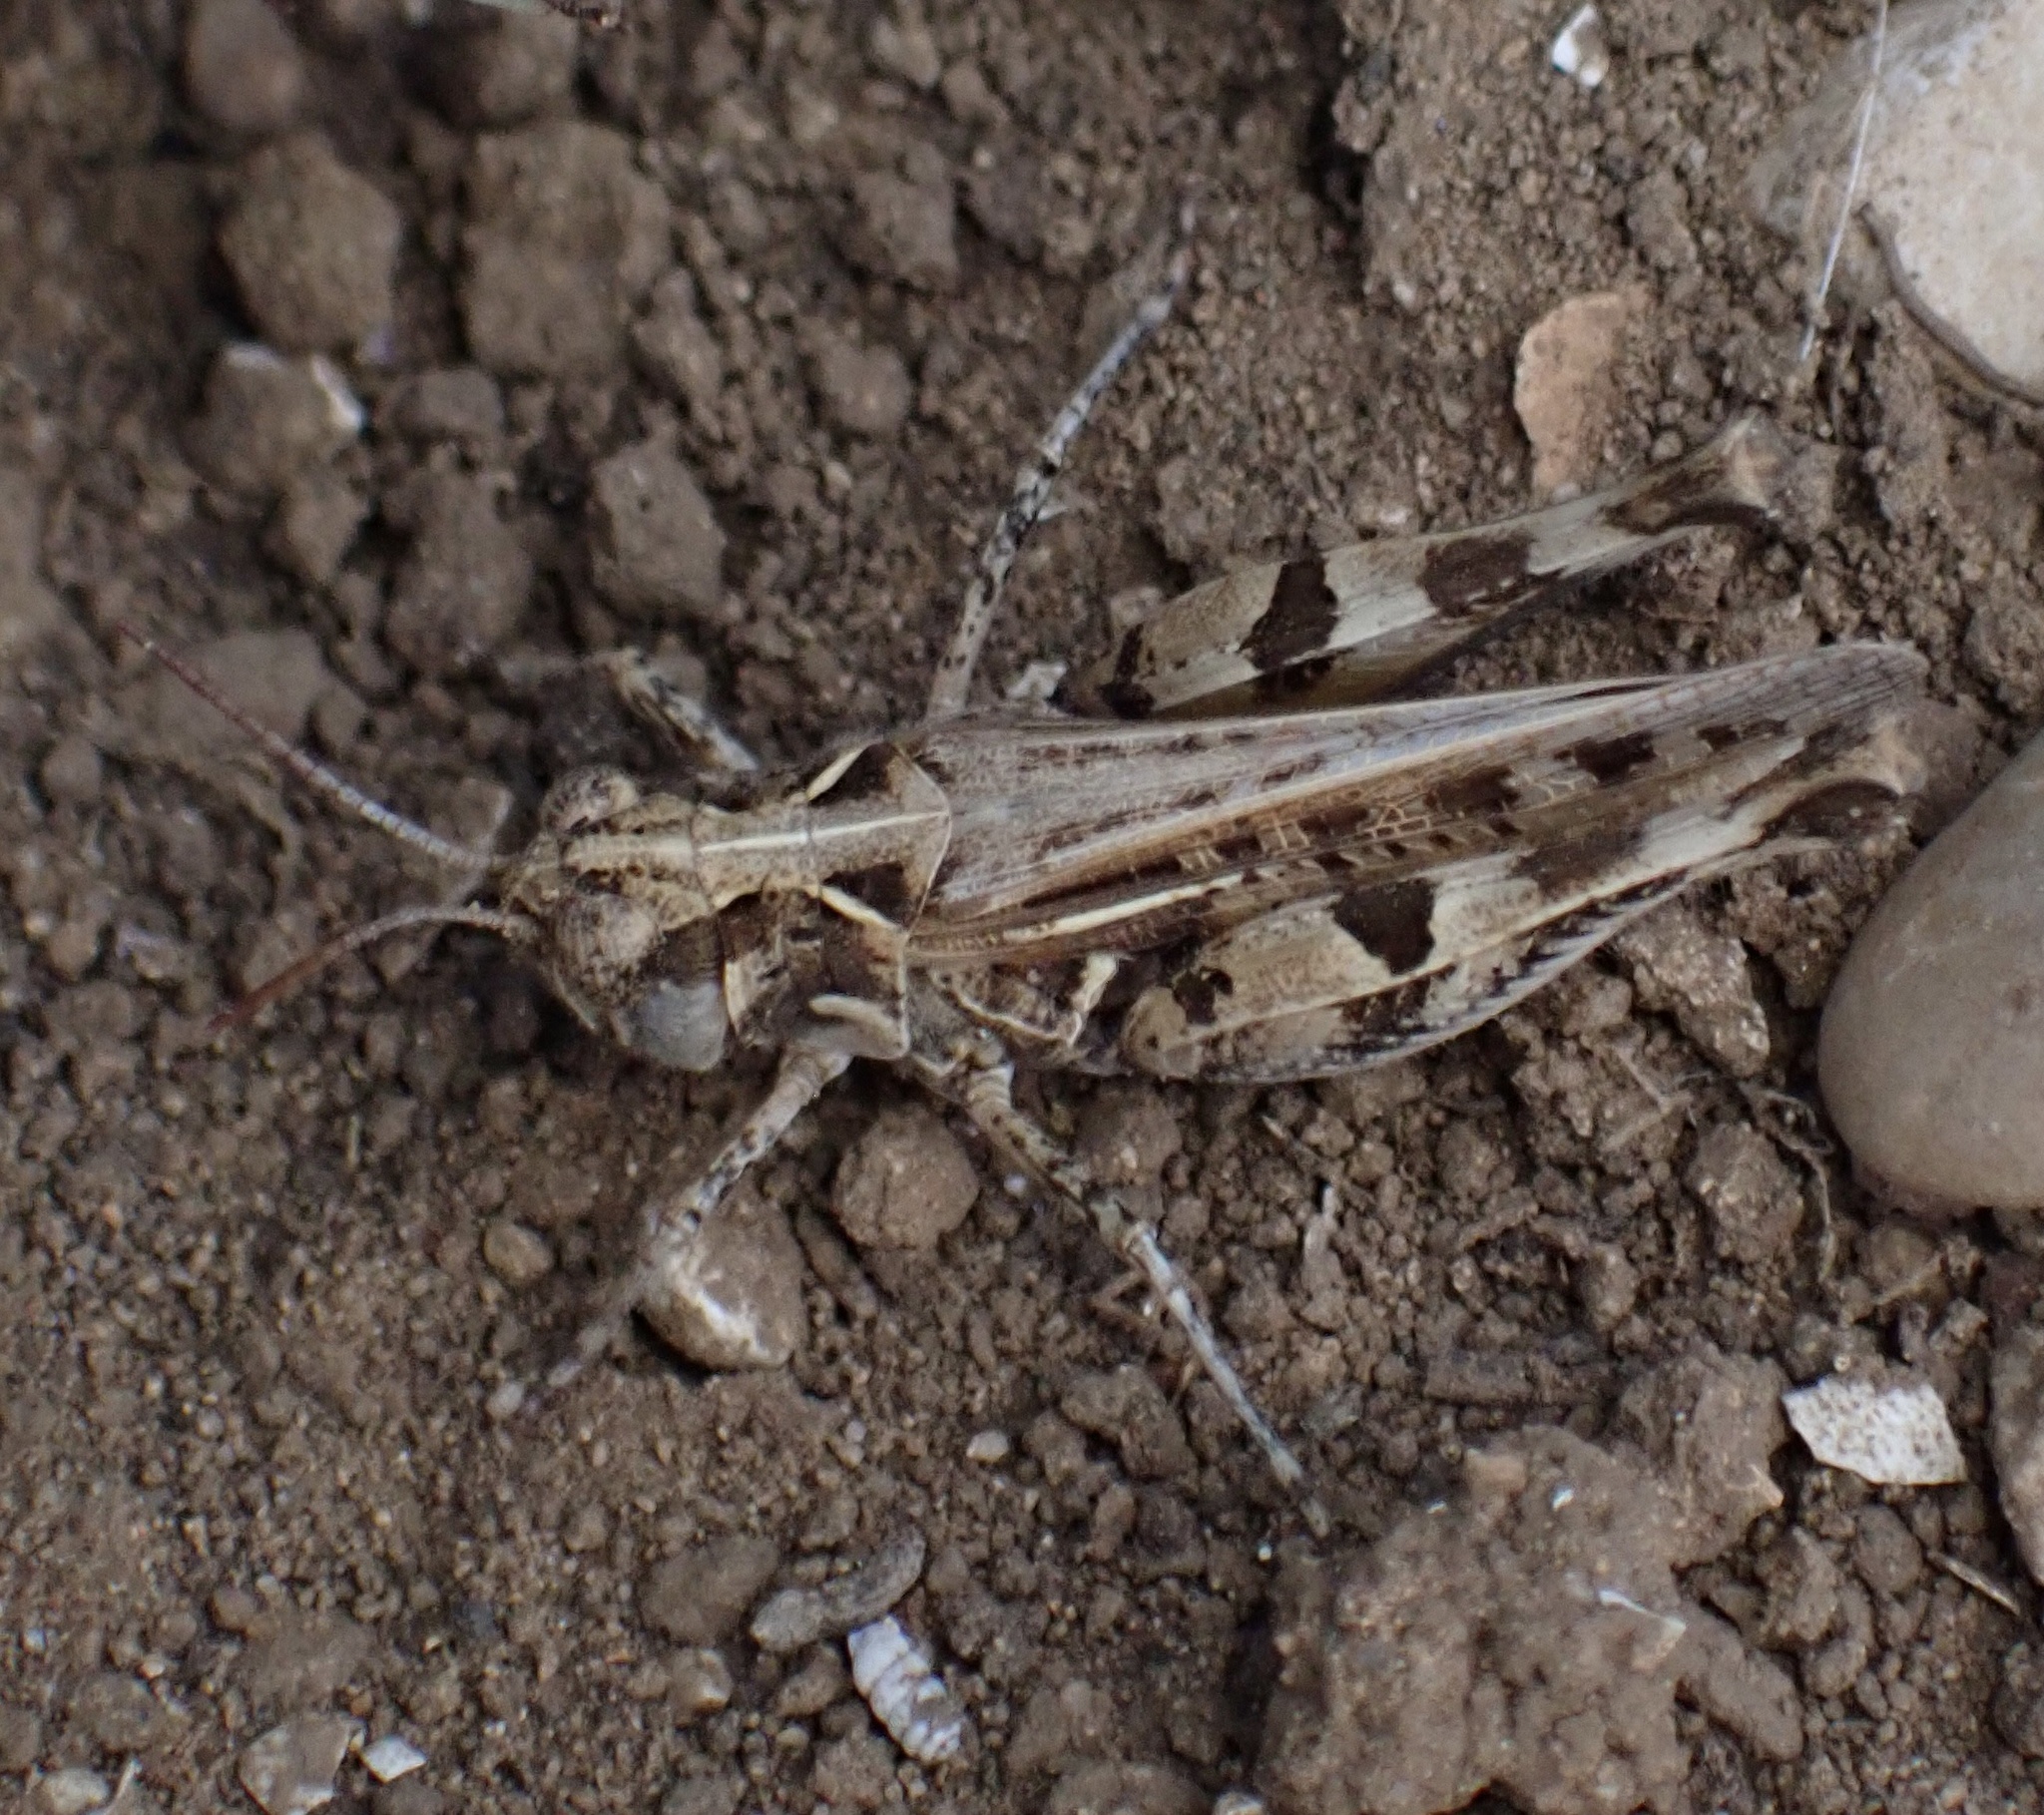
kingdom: Animalia
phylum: Arthropoda
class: Insecta
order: Orthoptera
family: Acrididae
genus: Dociostaurus
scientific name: Dociostaurus genei
